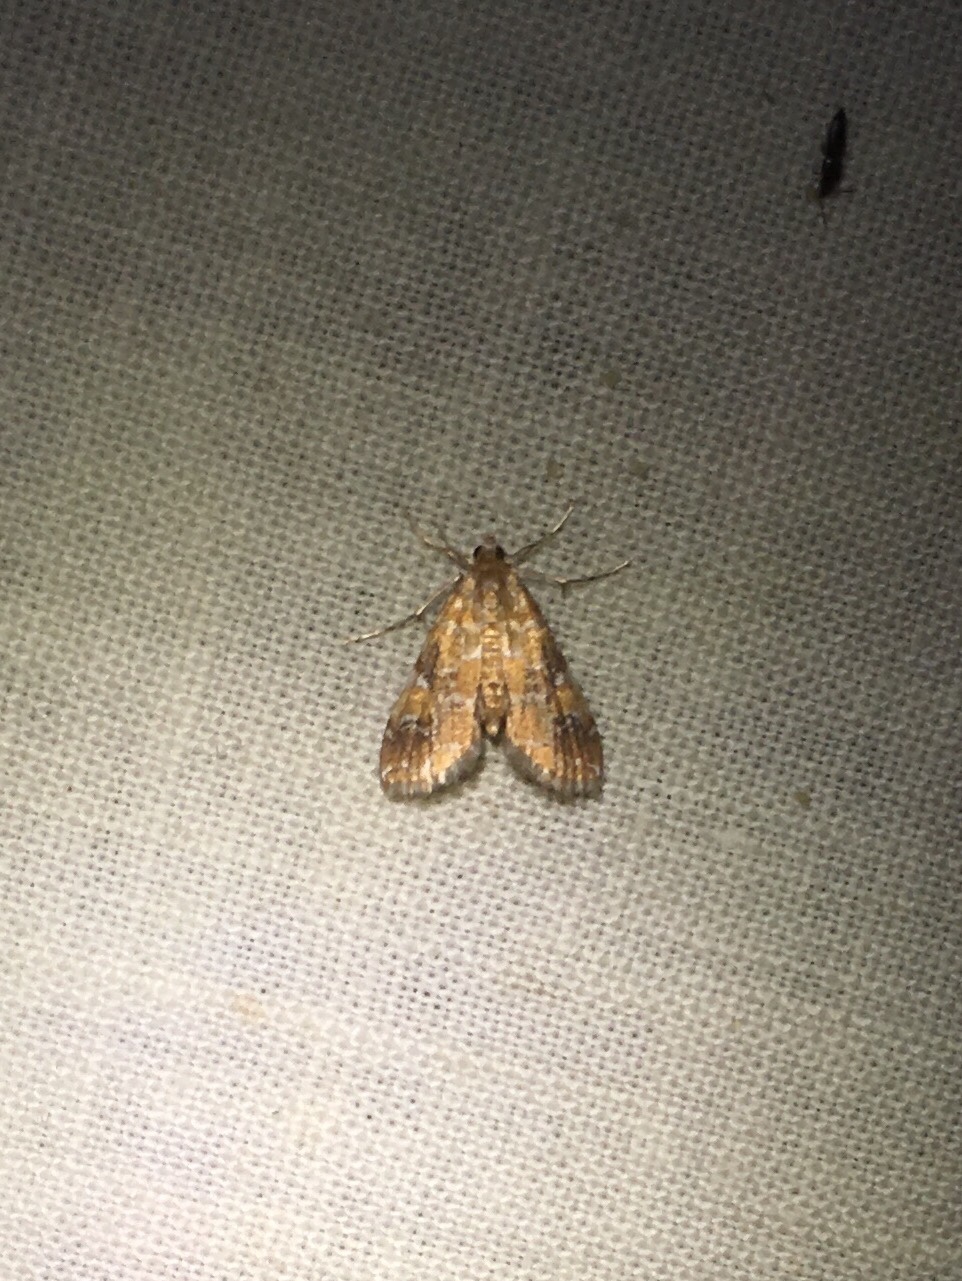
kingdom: Animalia
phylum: Arthropoda
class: Insecta
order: Lepidoptera
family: Crambidae
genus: Elophila
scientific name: Elophila nebulosalis
